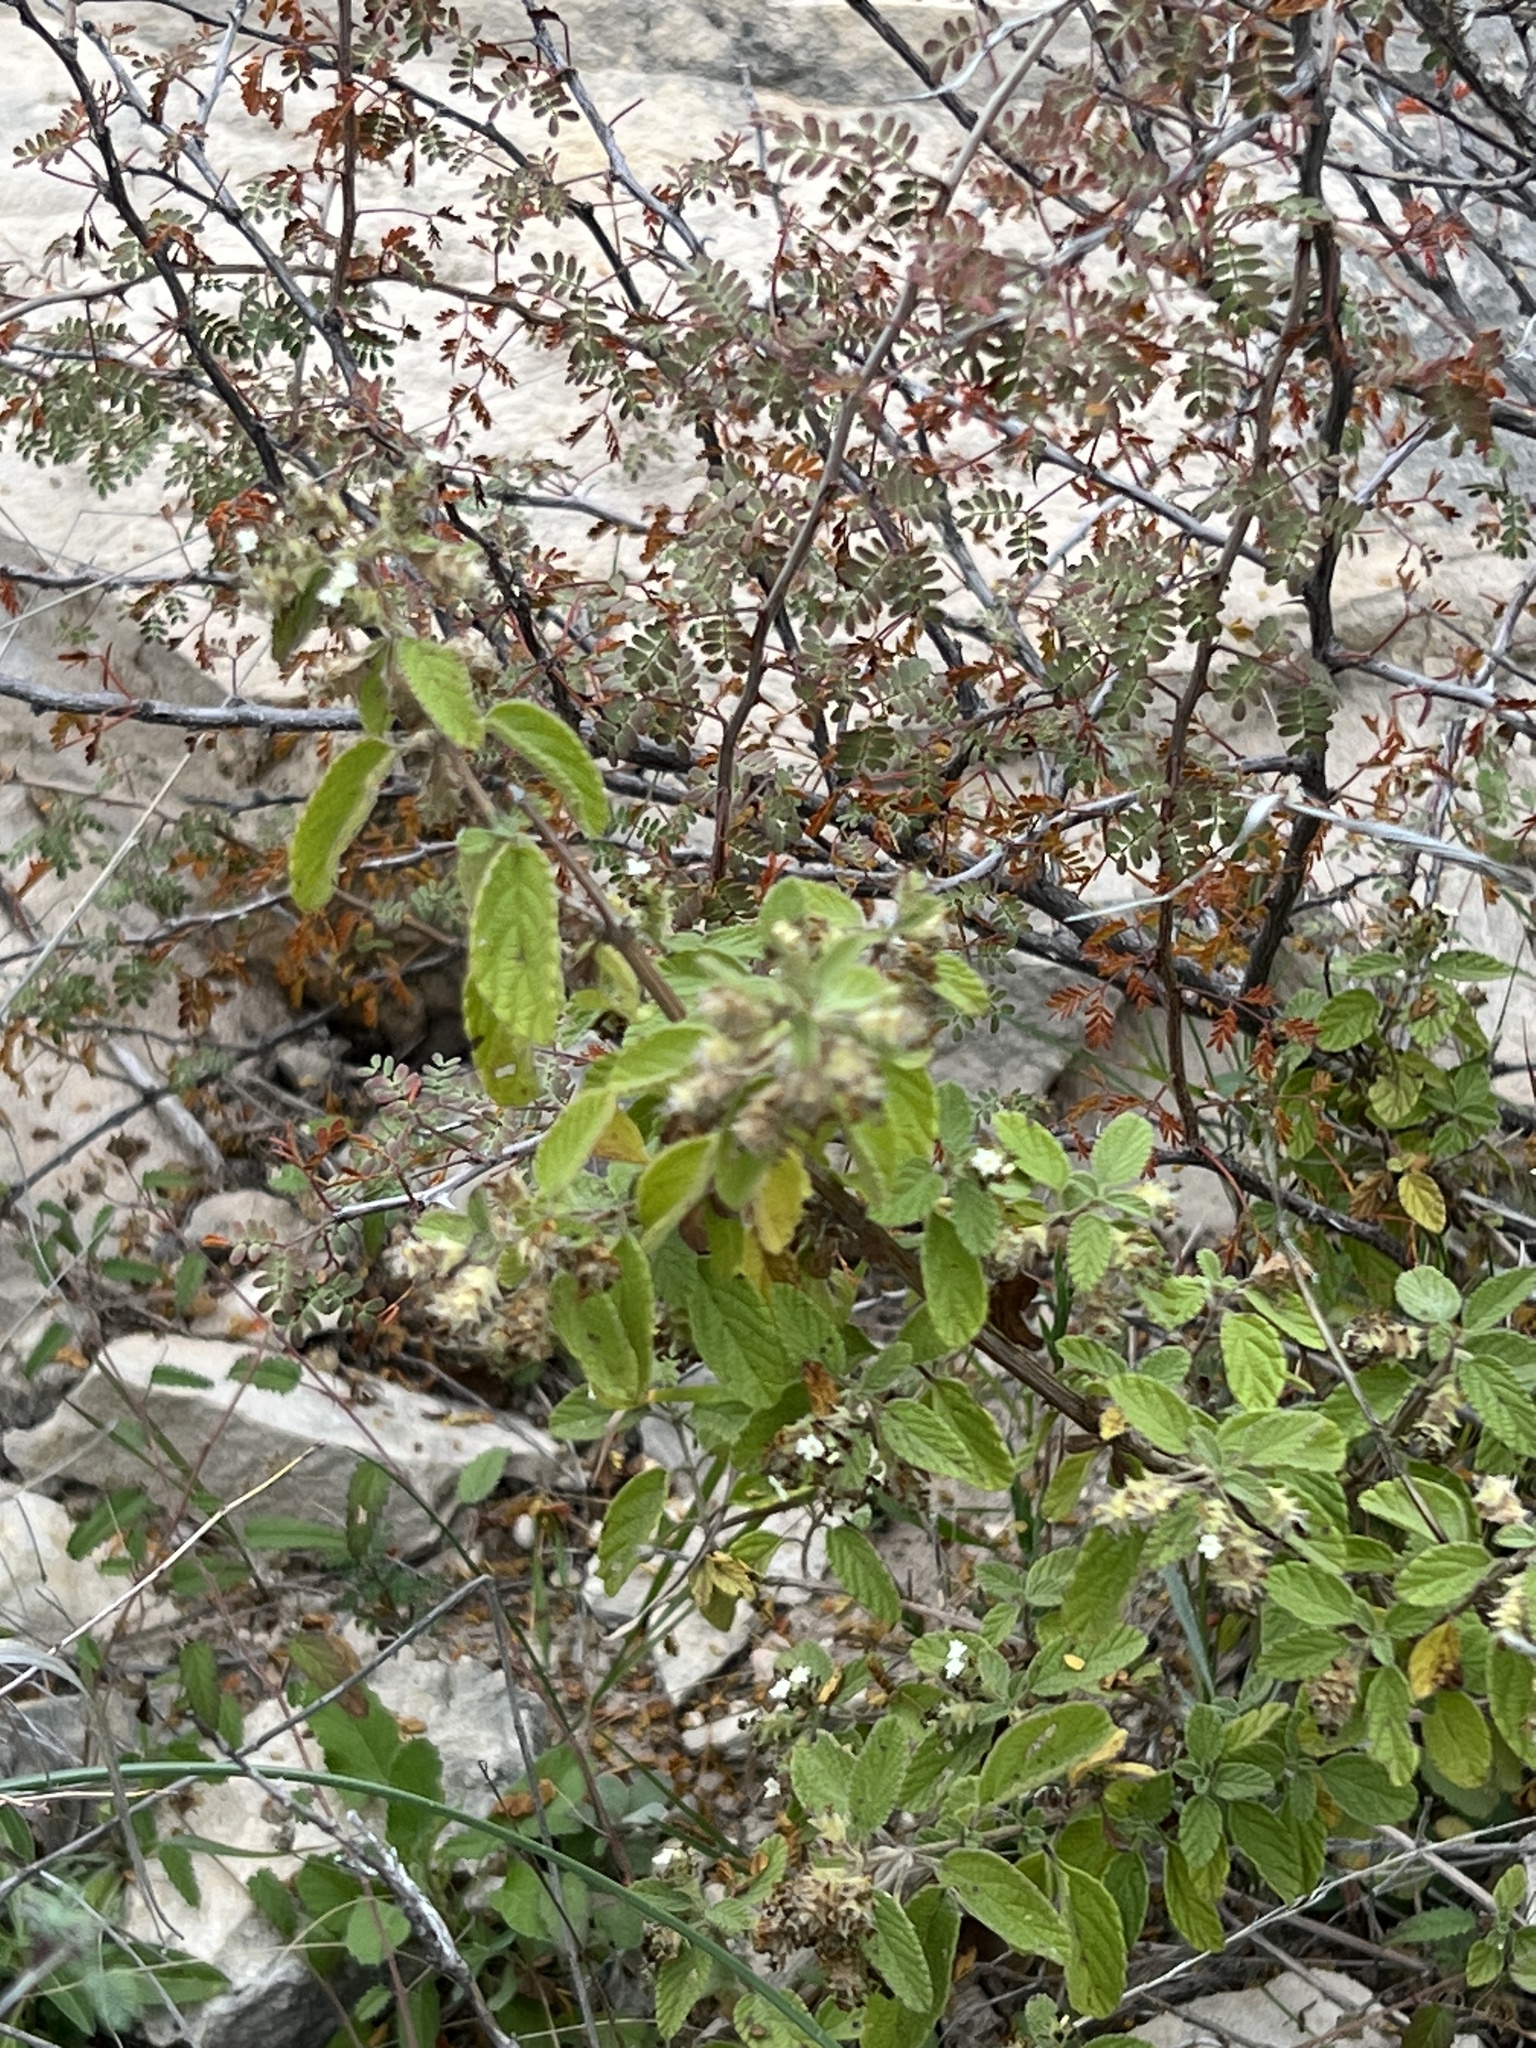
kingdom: Plantae
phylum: Tracheophyta
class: Magnoliopsida
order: Lamiales
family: Verbenaceae
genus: Lippia
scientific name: Lippia origanoides
